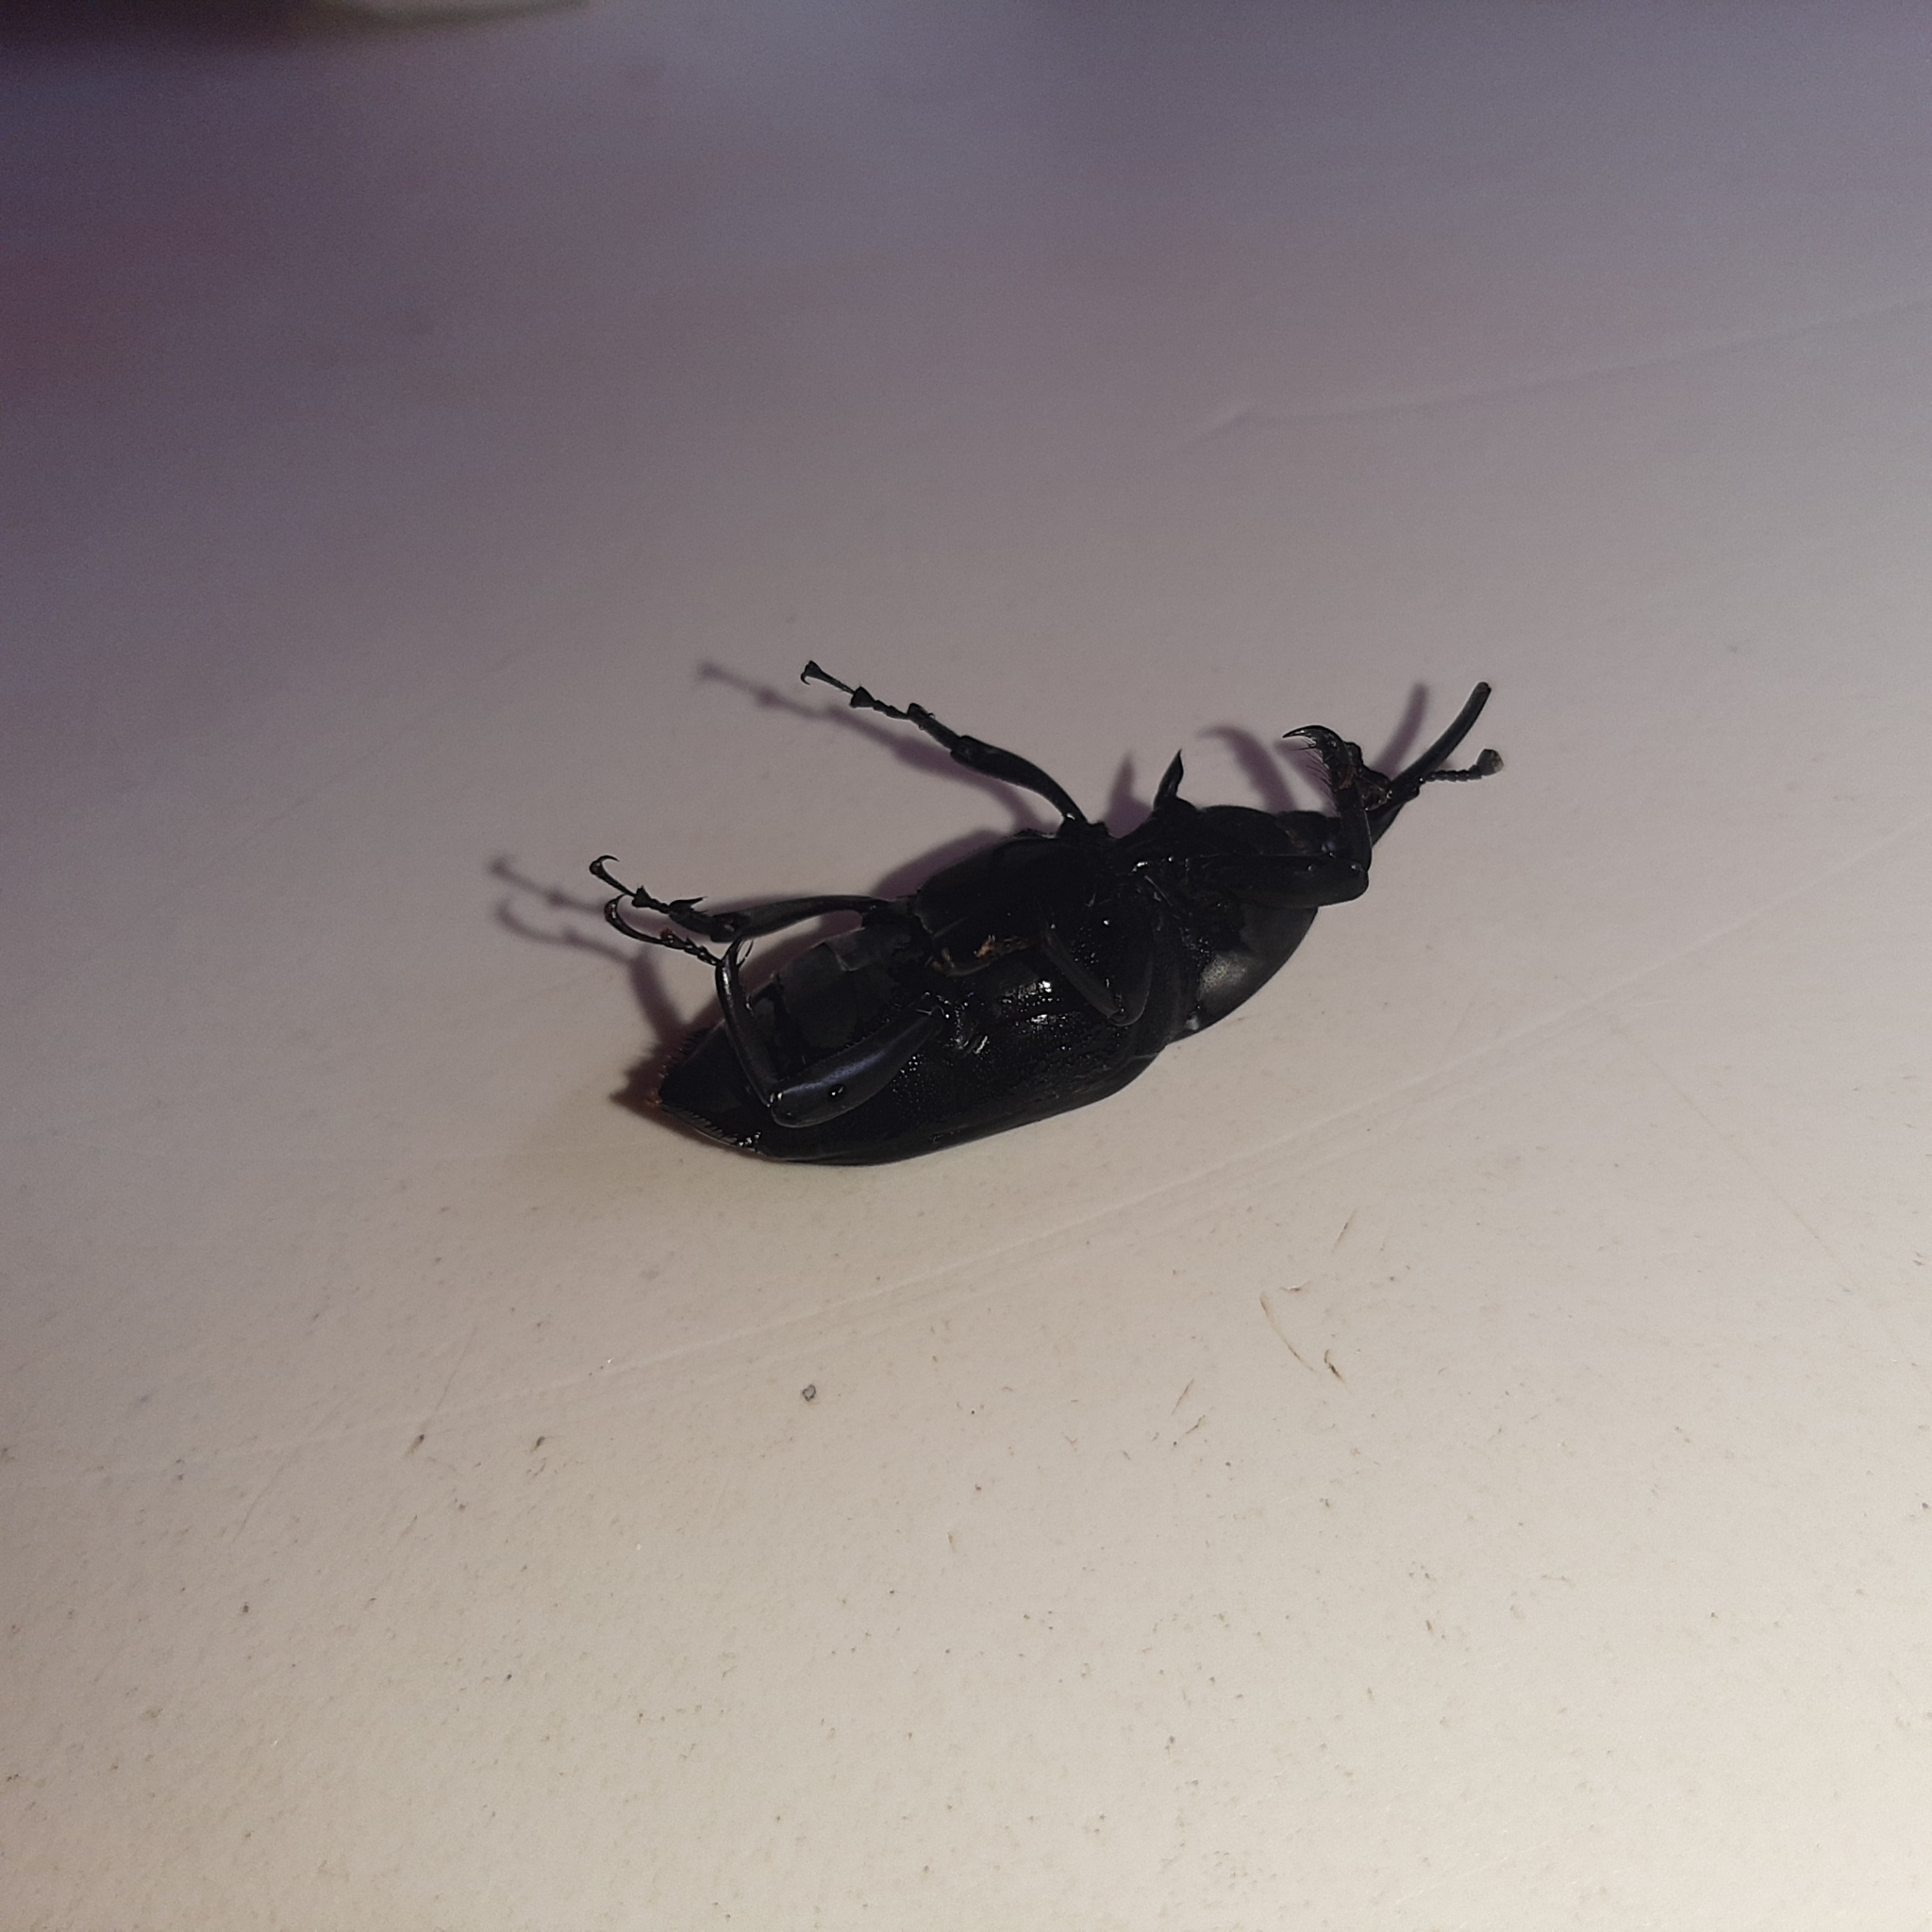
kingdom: Animalia
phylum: Arthropoda
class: Insecta
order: Coleoptera
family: Dryophthoridae
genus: Rhynchophorus
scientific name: Rhynchophorus palmarum
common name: Palm weevil
